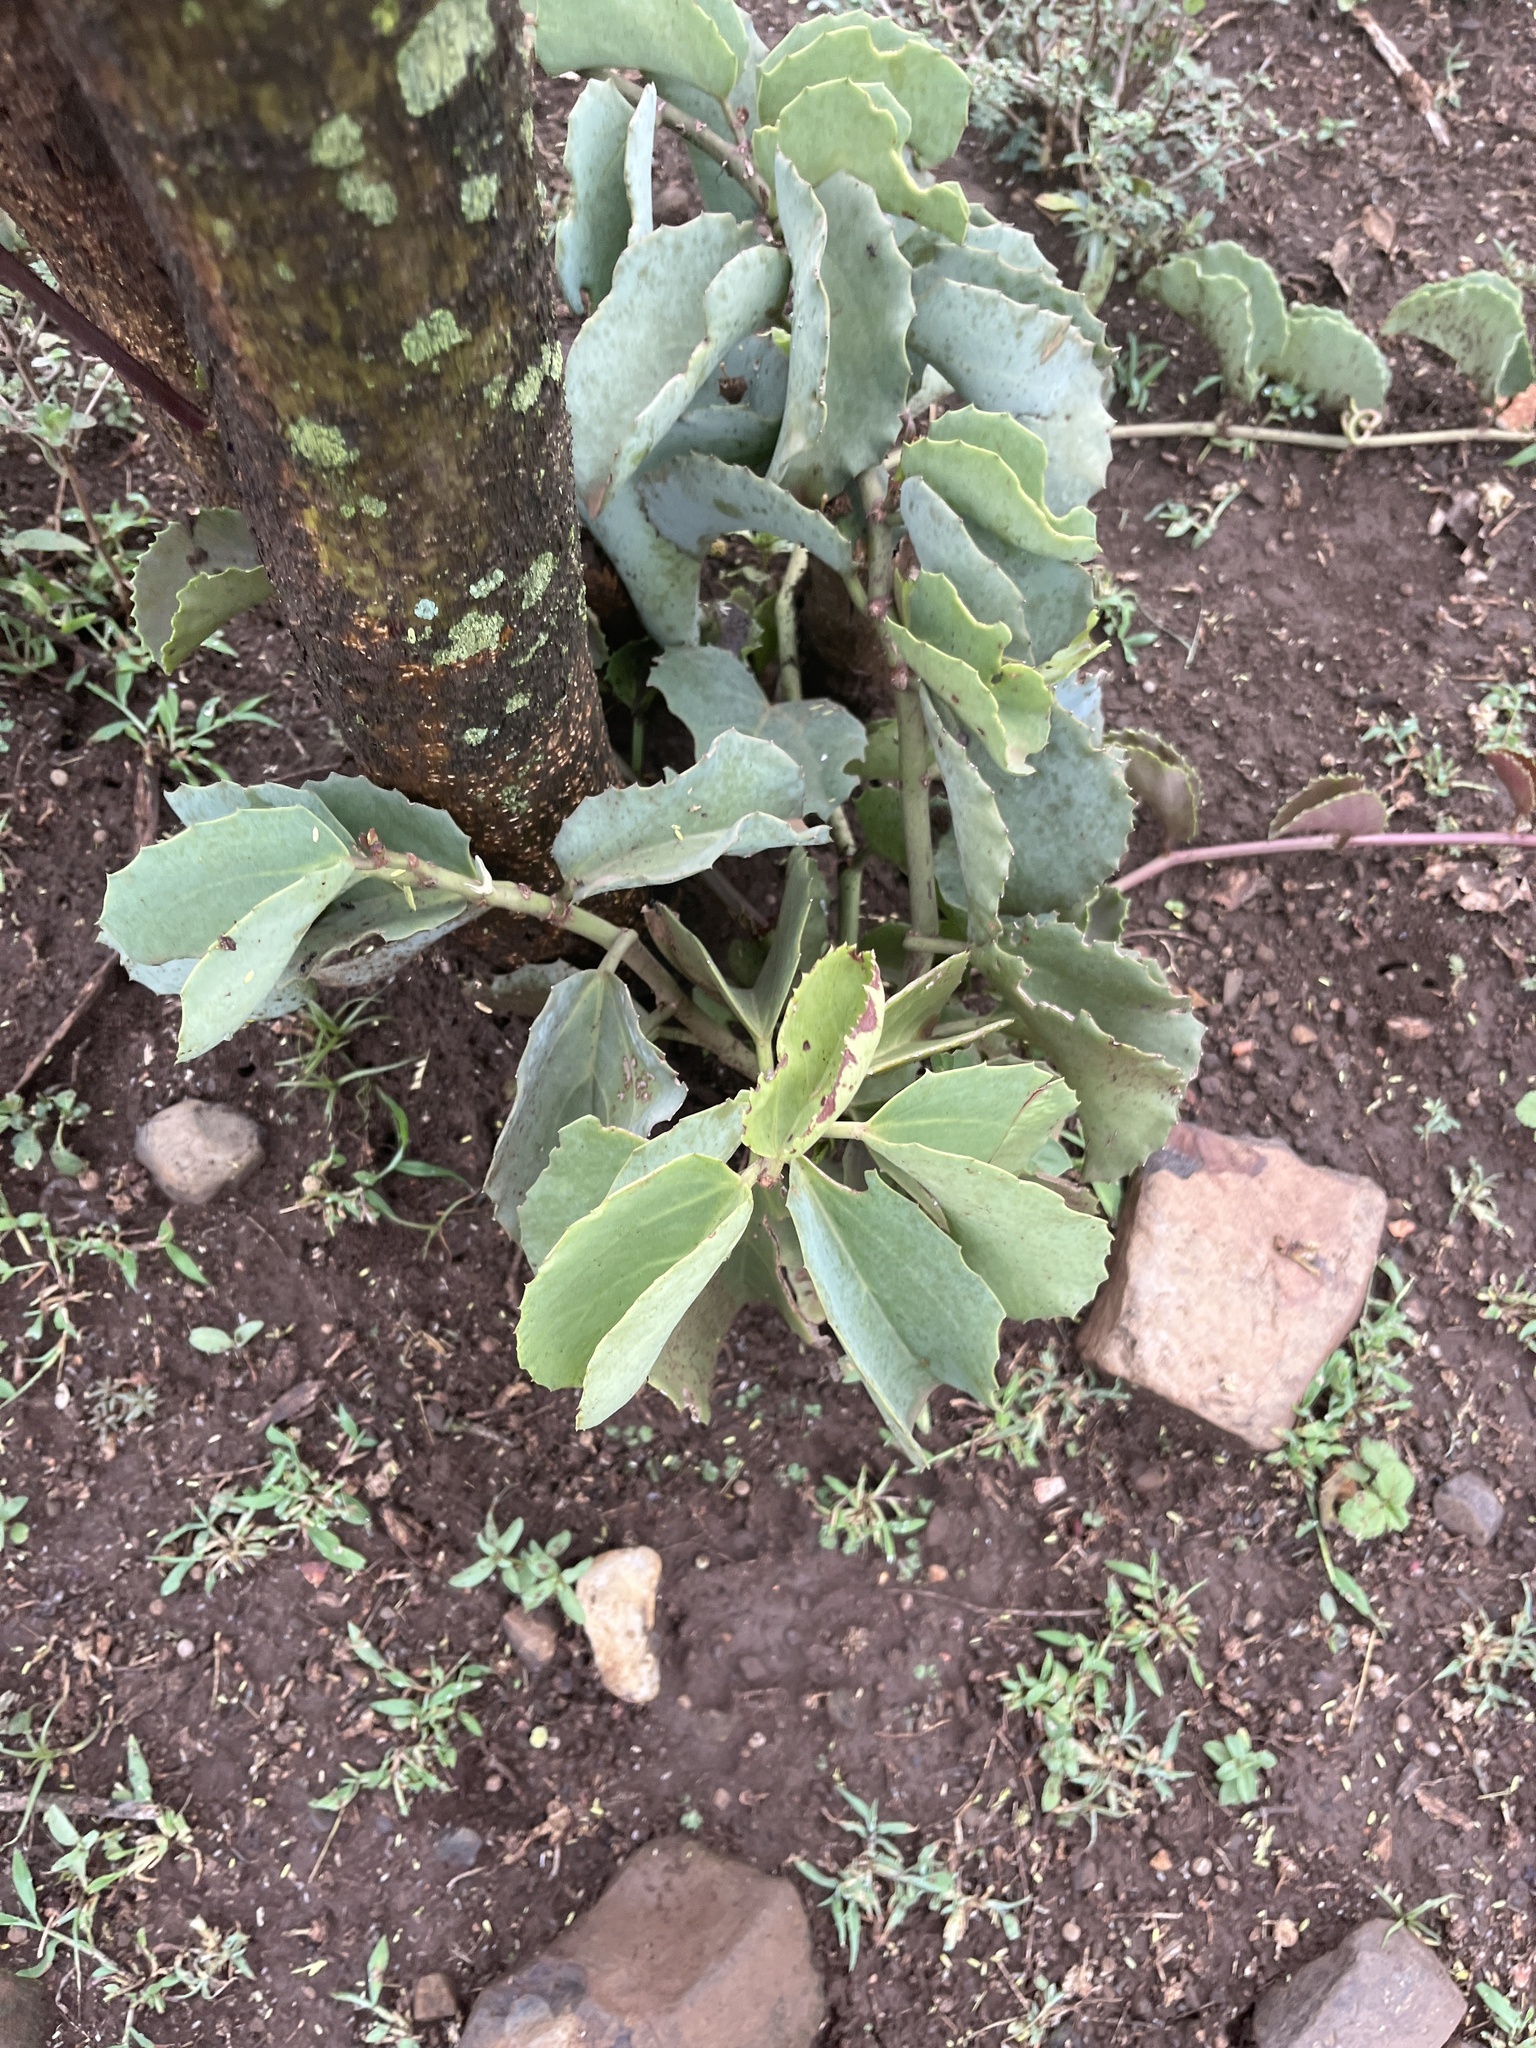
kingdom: Plantae
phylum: Tracheophyta
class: Magnoliopsida
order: Vitales
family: Vitaceae
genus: Cissus
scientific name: Cissus rotundifolia
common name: Arabian wax cissus
